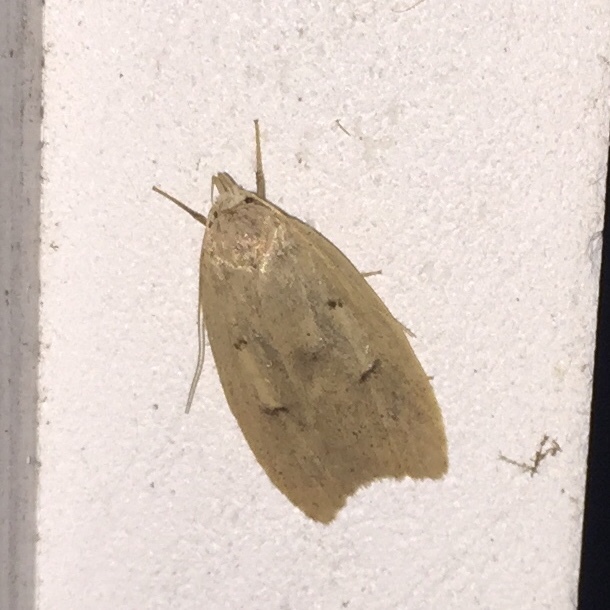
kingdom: Animalia
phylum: Arthropoda
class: Insecta
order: Lepidoptera
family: Peleopodidae
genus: Machimia
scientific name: Machimia tentoriferella
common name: Gold-striped leaftier moth
